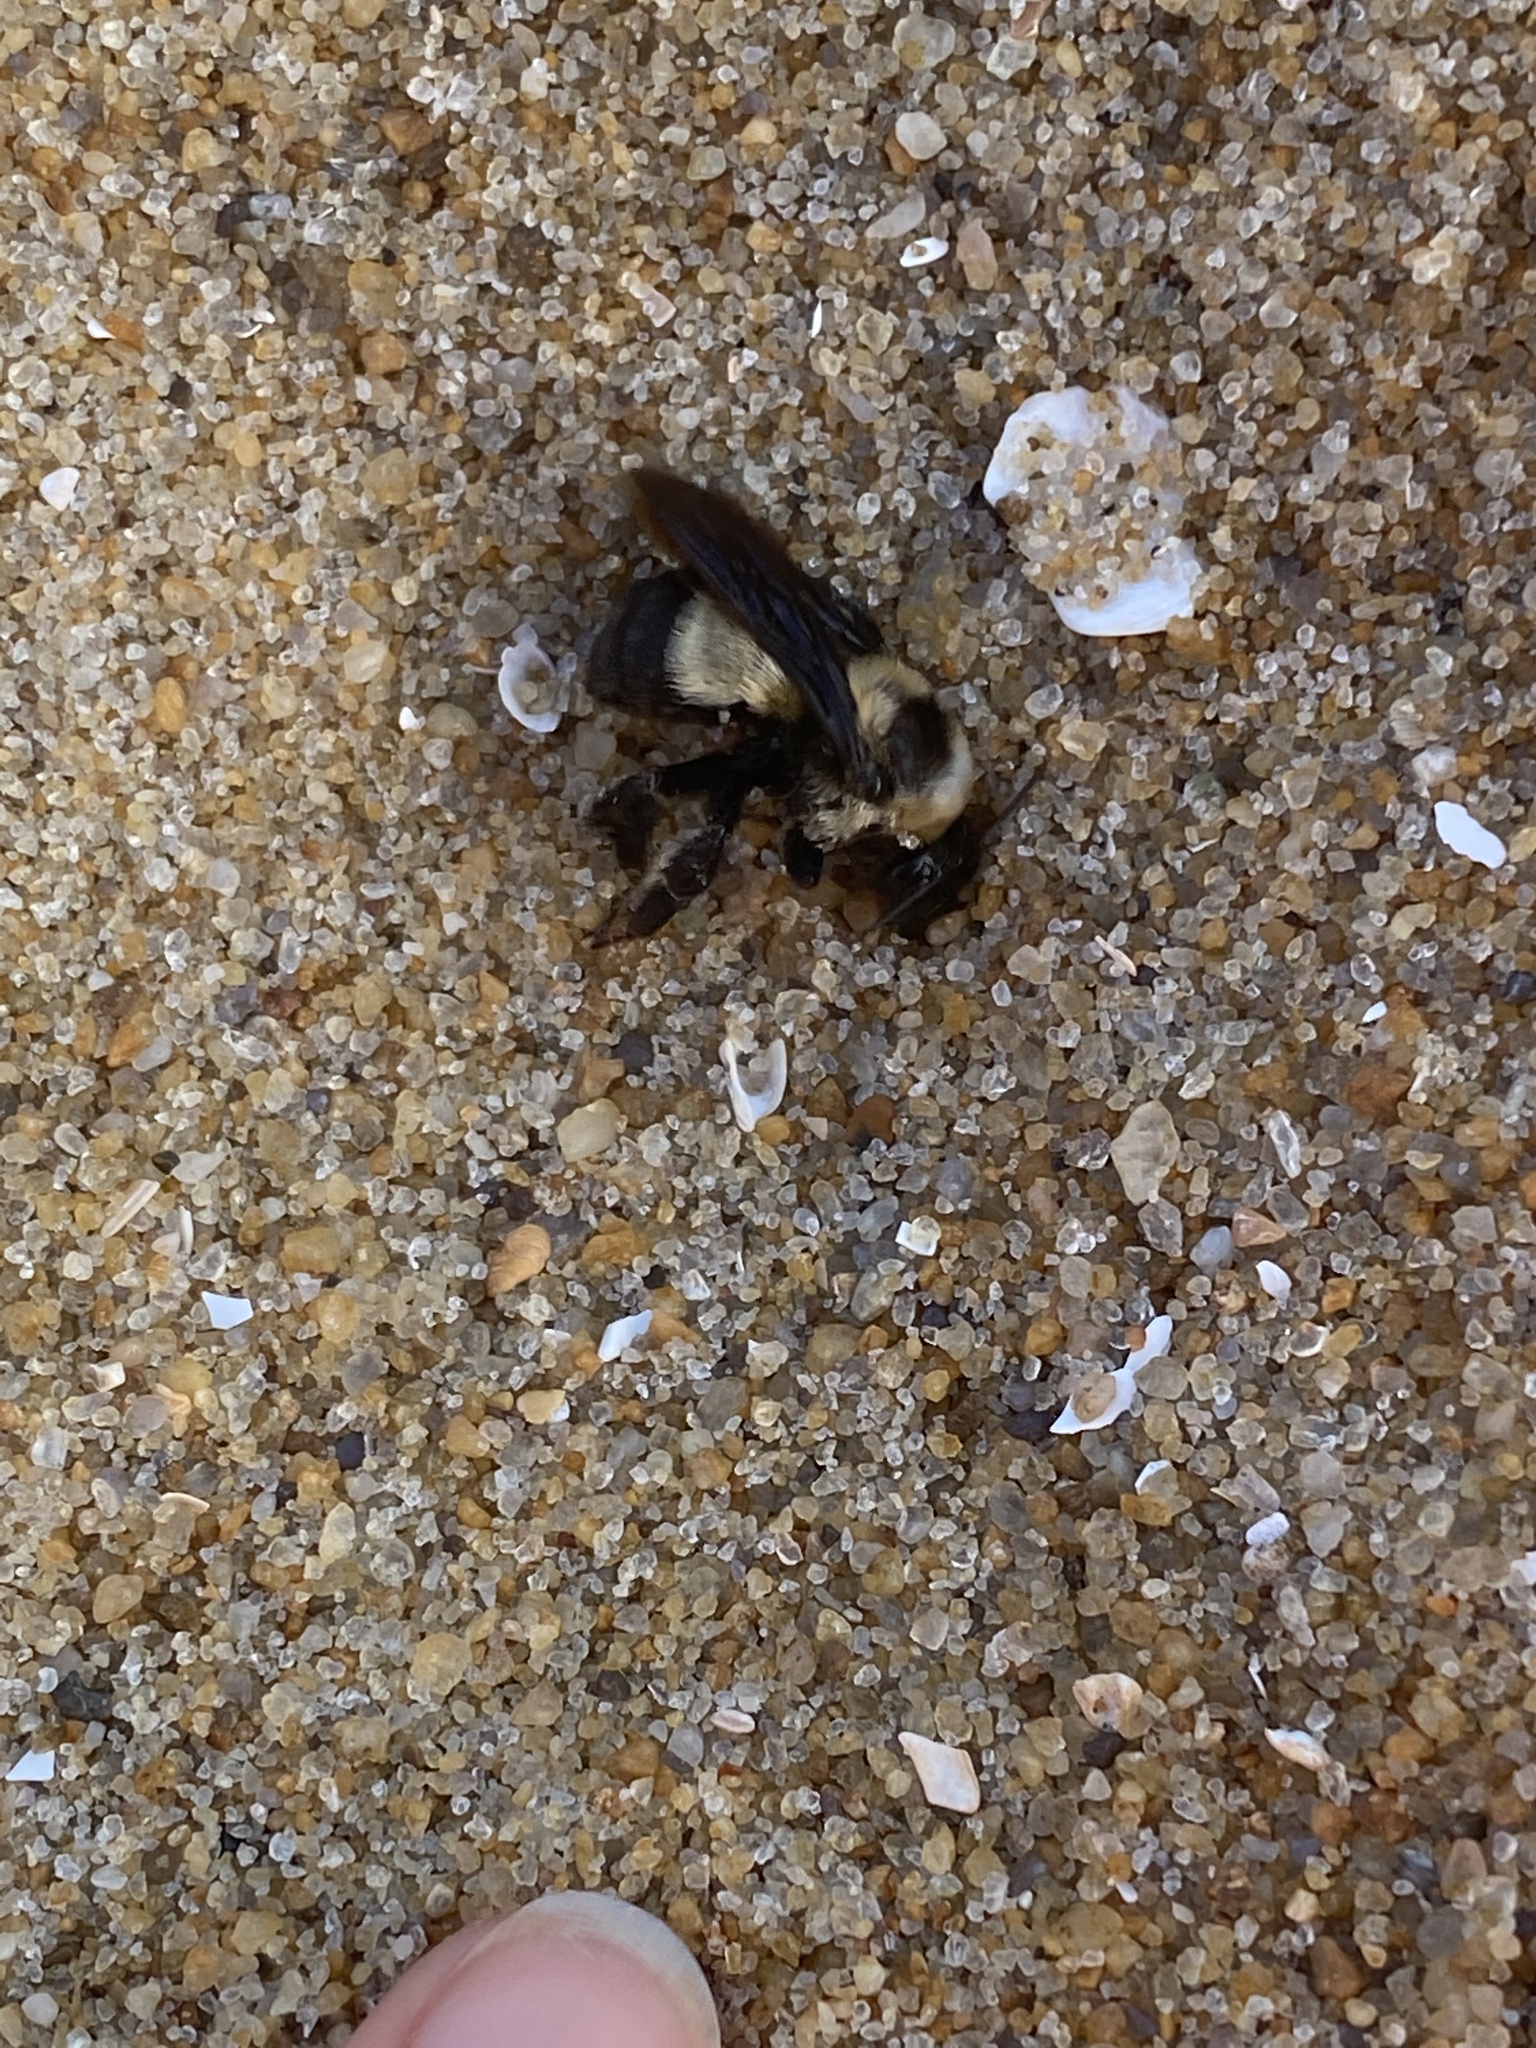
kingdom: Animalia
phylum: Arthropoda
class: Insecta
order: Hymenoptera
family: Apidae
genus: Bombus
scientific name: Bombus fraternus
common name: Southern plains bumble bee
